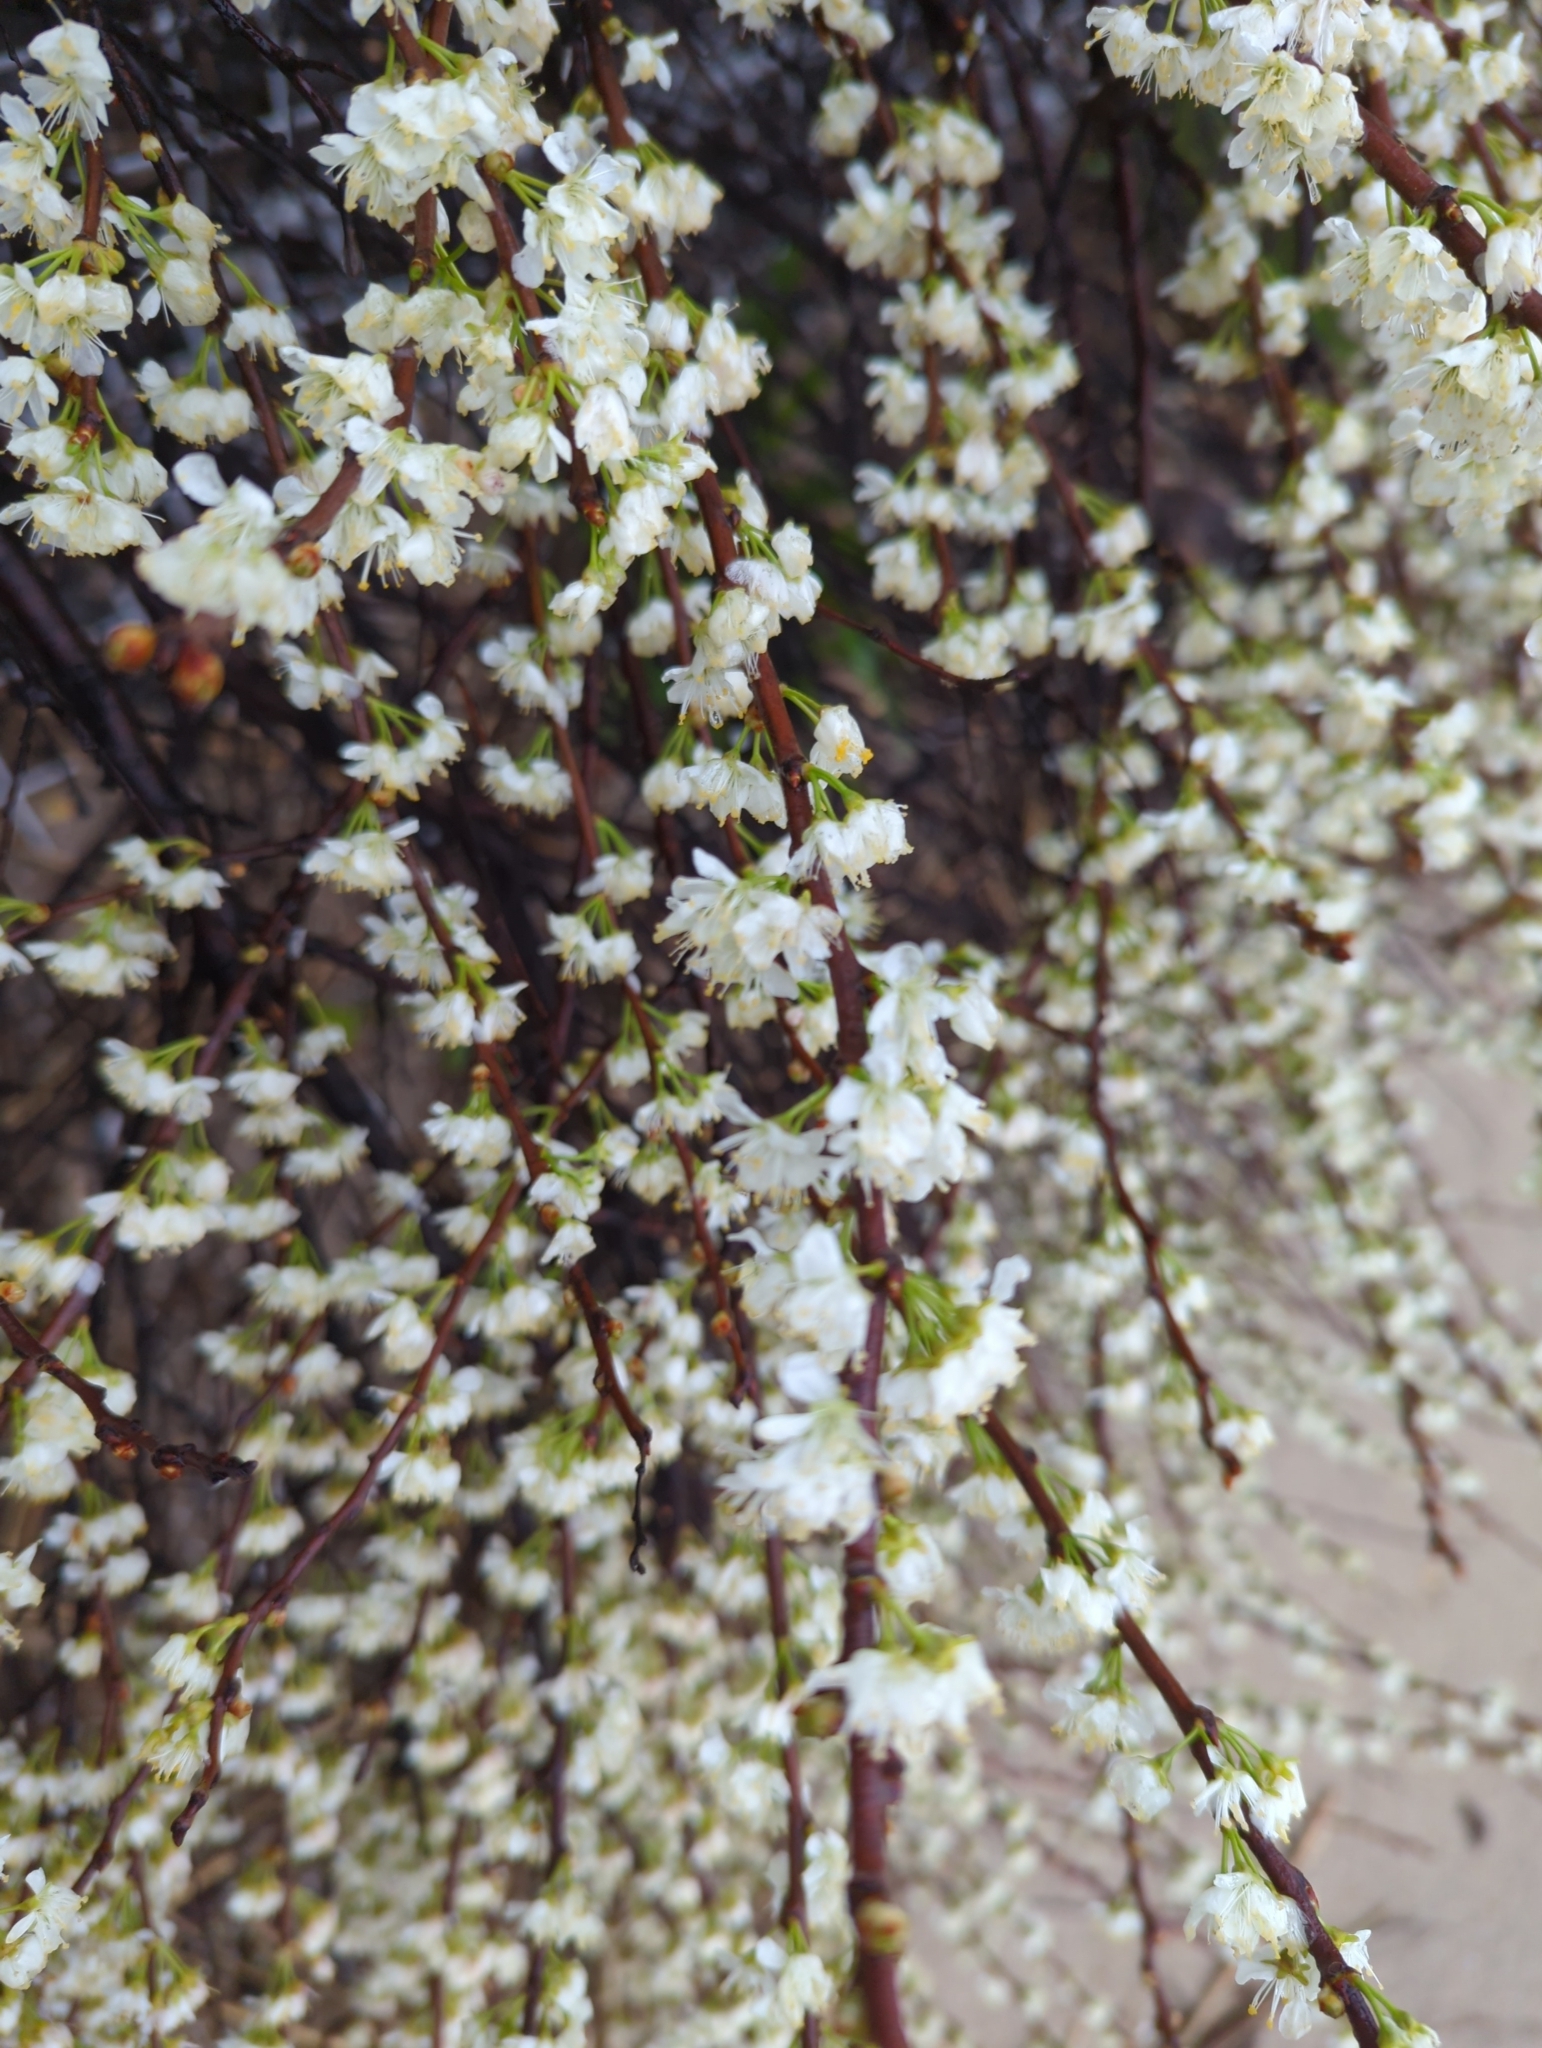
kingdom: Plantae
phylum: Tracheophyta
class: Magnoliopsida
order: Rosales
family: Rosaceae
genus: Prunus
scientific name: Prunus maritima
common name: Beach plum
